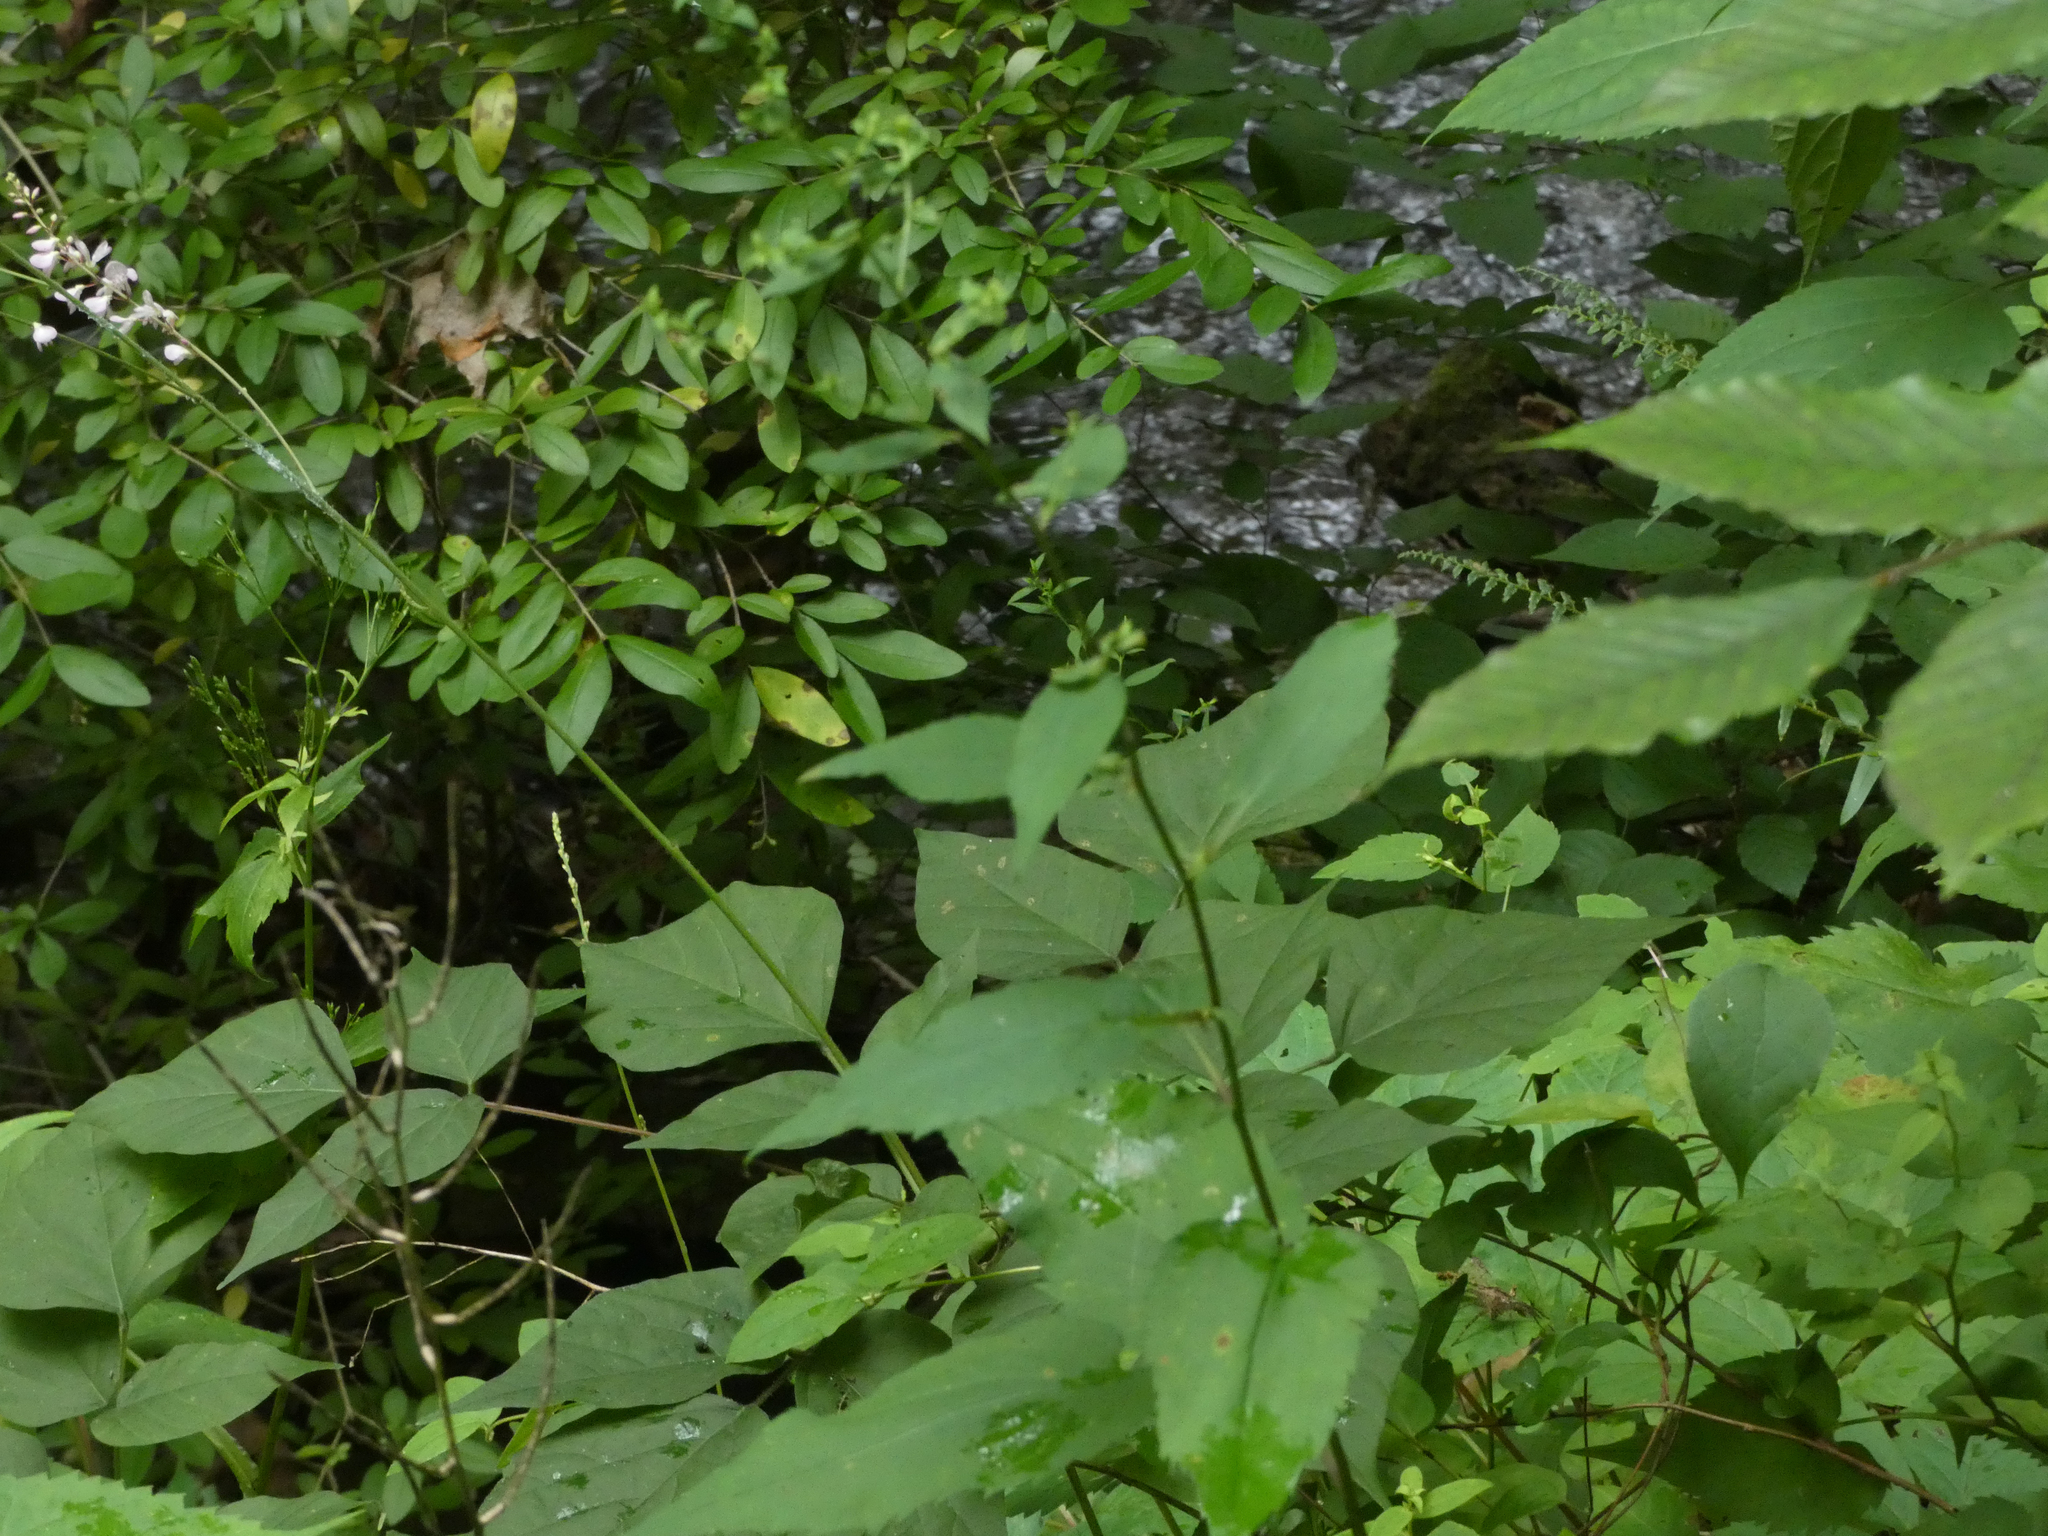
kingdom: Plantae
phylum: Tracheophyta
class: Magnoliopsida
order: Fabales
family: Fabaceae
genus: Hylodesmum
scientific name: Hylodesmum glutinosum
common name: Clustered-leaved tick-trefoil
